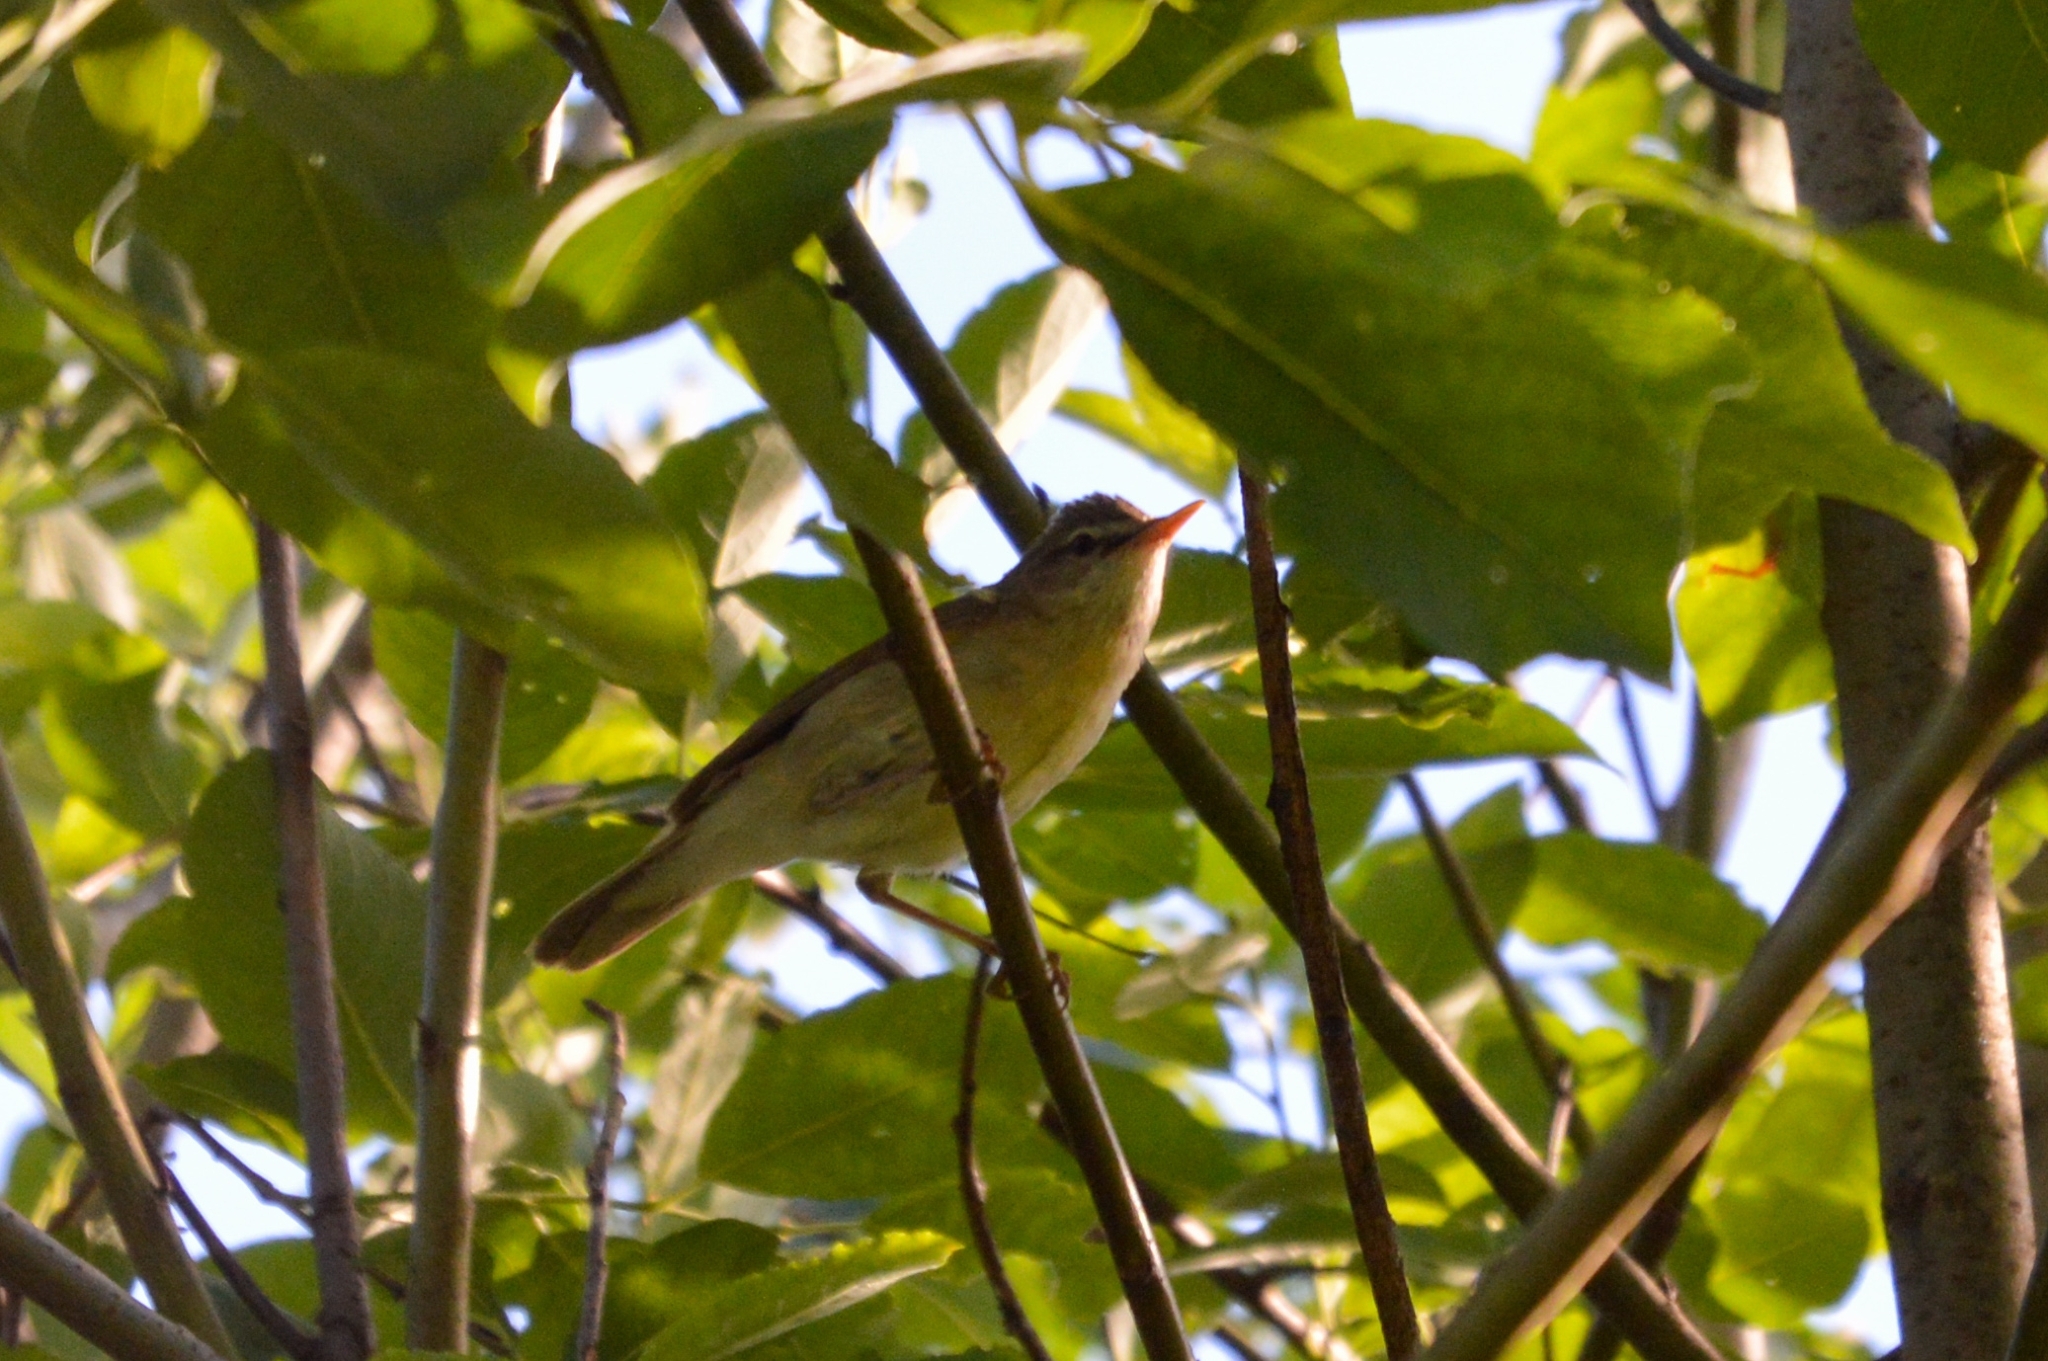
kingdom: Animalia
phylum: Chordata
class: Aves
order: Passeriformes
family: Phylloscopidae
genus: Phylloscopus
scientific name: Phylloscopus trochilus
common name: Willow warbler
